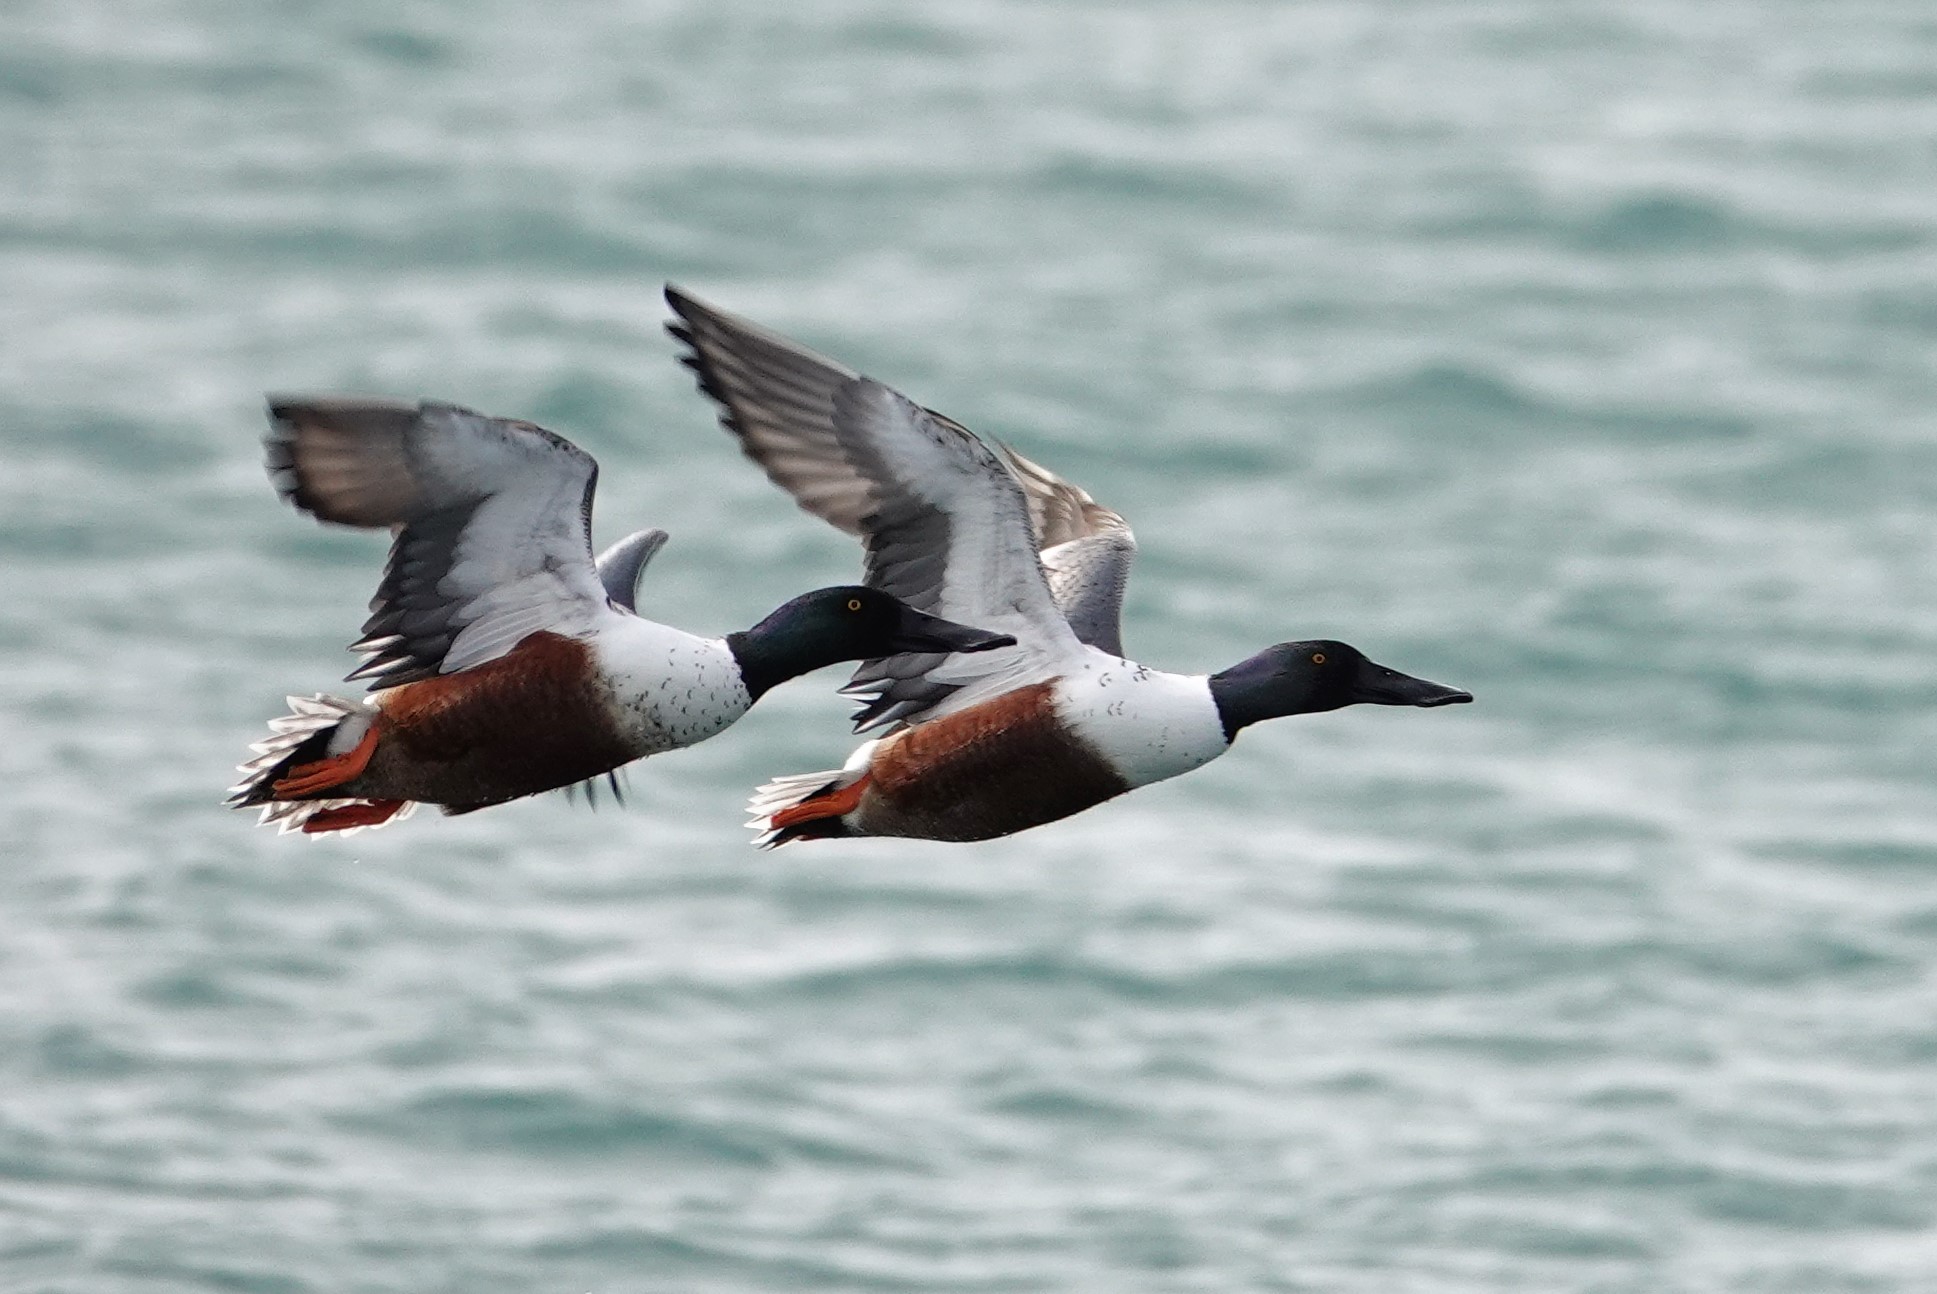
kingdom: Animalia
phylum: Chordata
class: Aves
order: Anseriformes
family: Anatidae
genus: Spatula
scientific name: Spatula clypeata
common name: Northern shoveler
